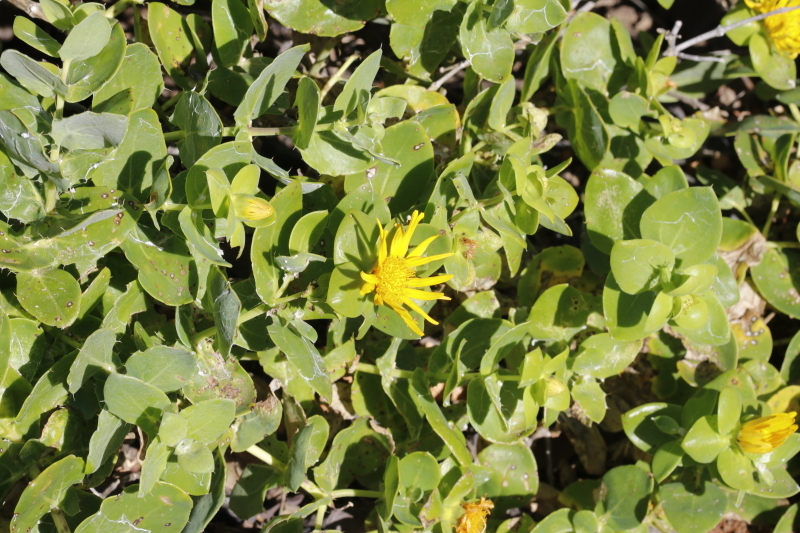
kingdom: Plantae
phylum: Tracheophyta
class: Magnoliopsida
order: Asterales
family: Asteraceae
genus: Didelta
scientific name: Didelta spinosa
